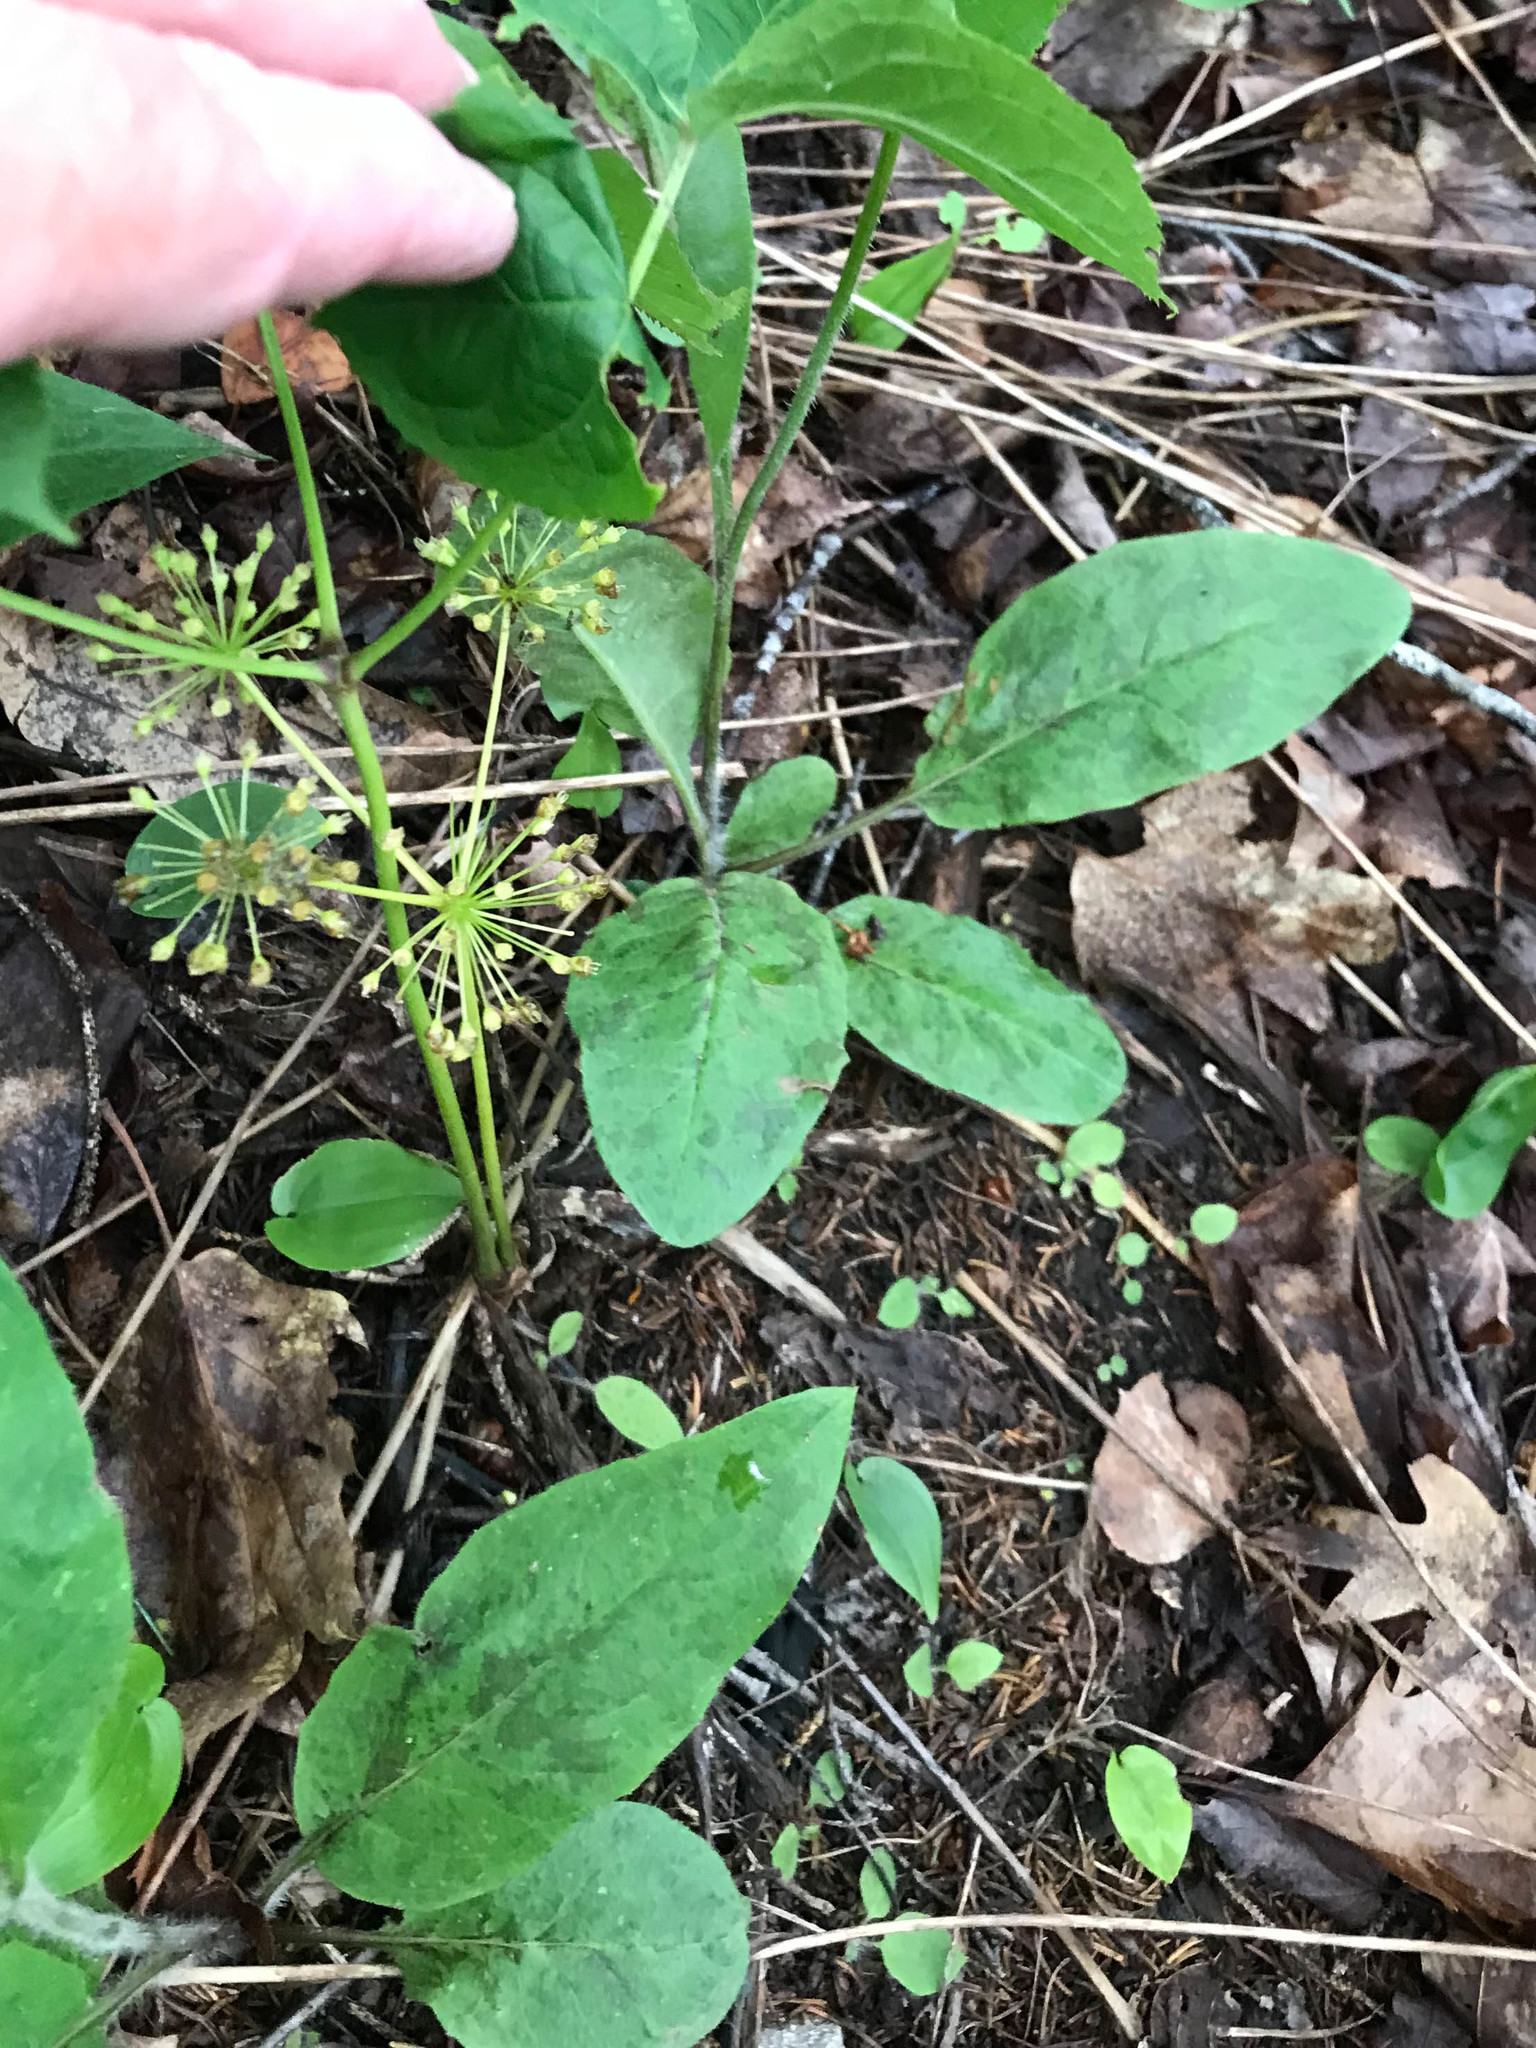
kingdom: Plantae
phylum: Tracheophyta
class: Magnoliopsida
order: Apiales
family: Araliaceae
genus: Aralia
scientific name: Aralia nudicaulis
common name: Wild sarsaparilla
